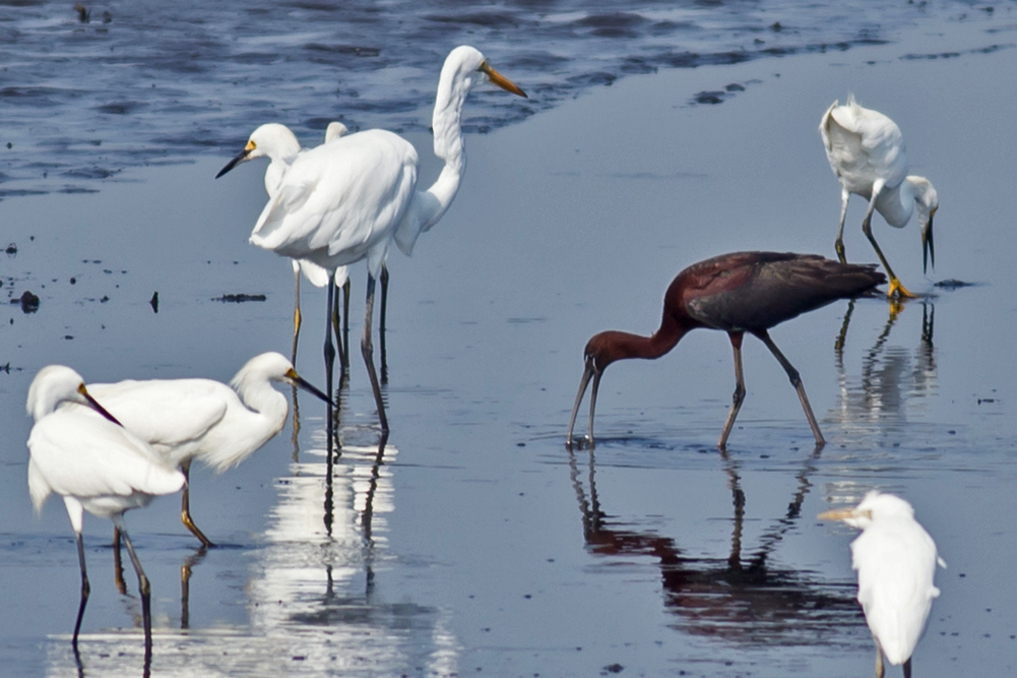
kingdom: Animalia
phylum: Chordata
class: Aves
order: Pelecaniformes
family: Threskiornithidae
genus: Plegadis
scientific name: Plegadis falcinellus
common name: Glossy ibis
